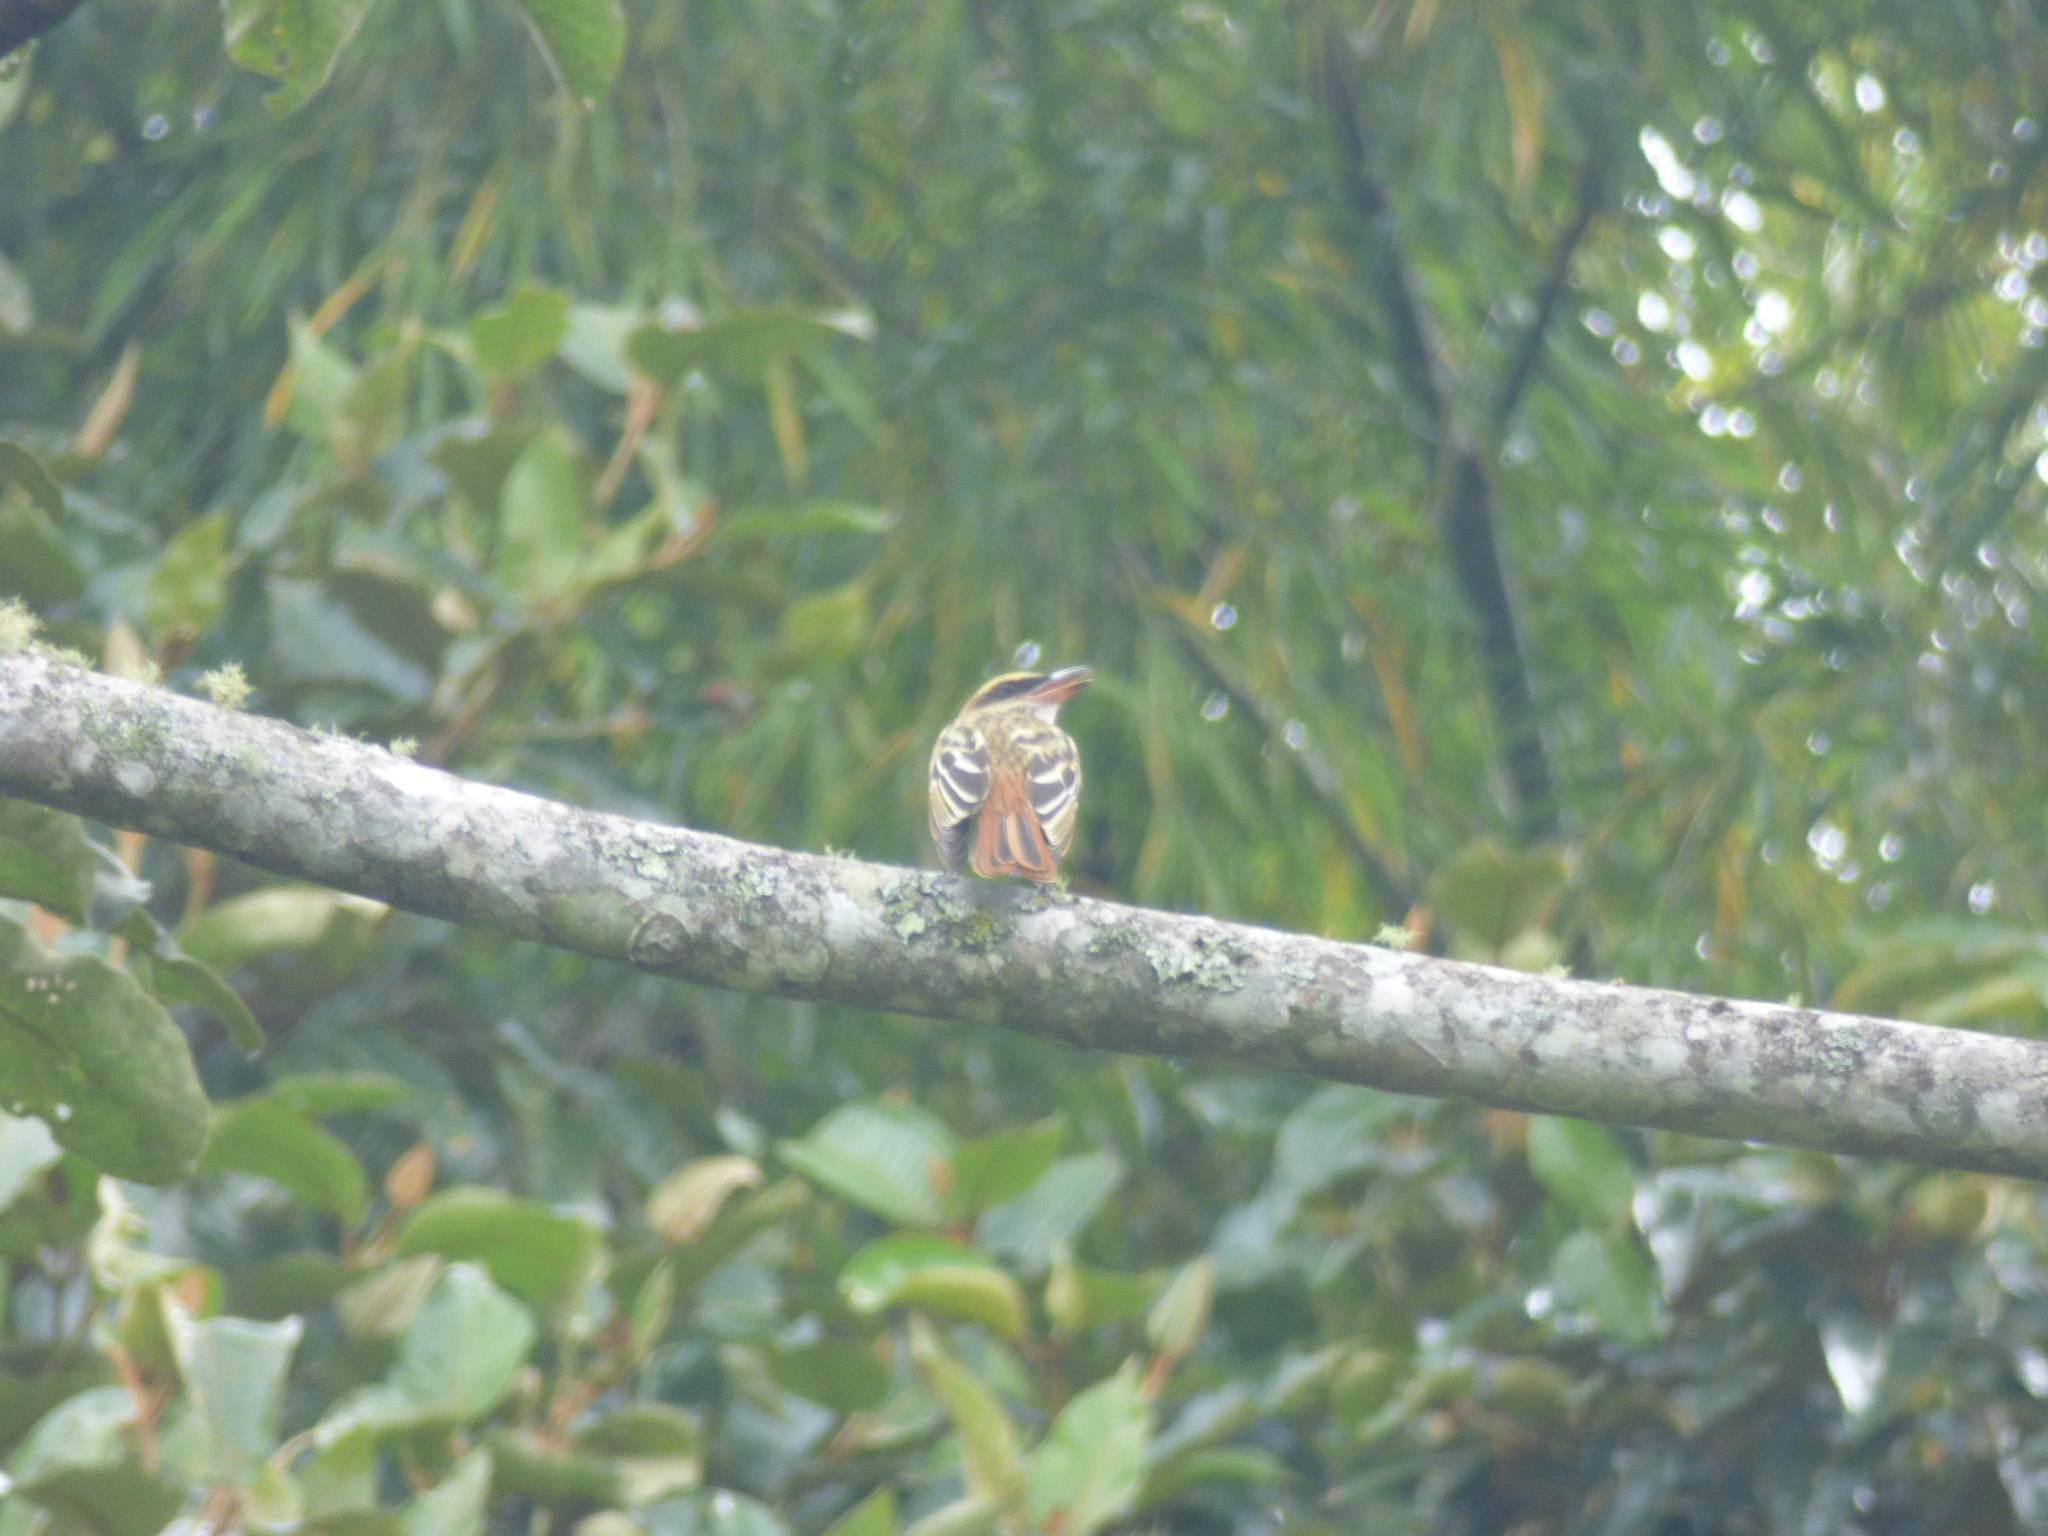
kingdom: Animalia
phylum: Chordata
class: Aves
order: Passeriformes
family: Tyrannidae
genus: Myiodynastes
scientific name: Myiodynastes luteiventris
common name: Sulphur-bellied flycatcher
